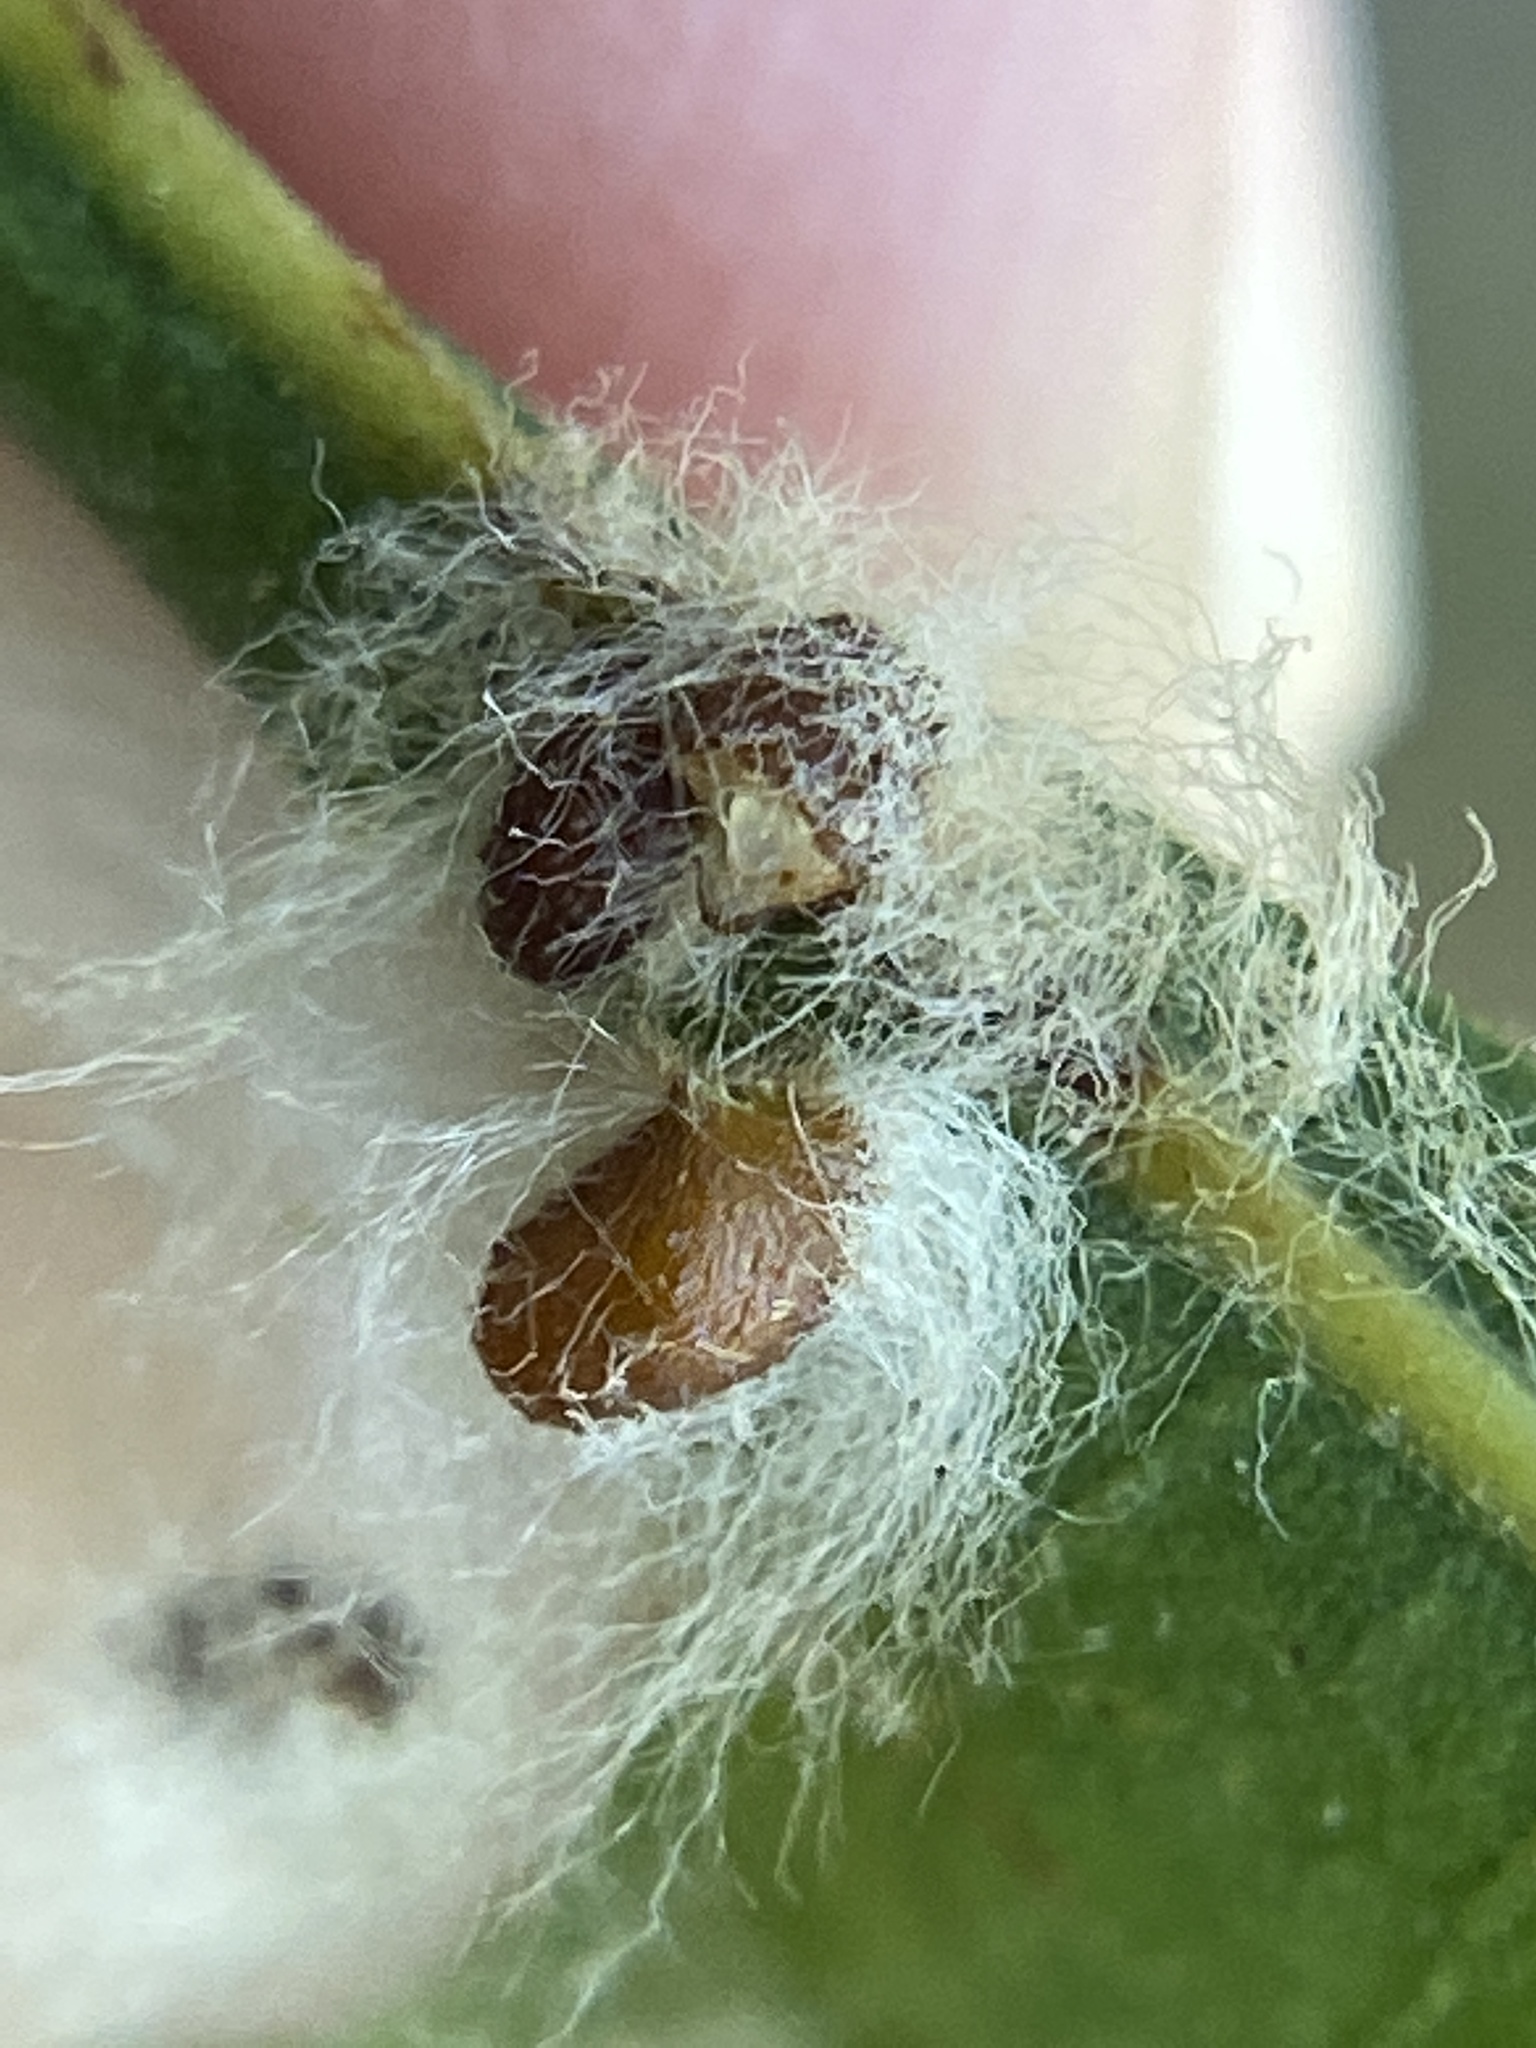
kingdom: Animalia
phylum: Arthropoda
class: Insecta
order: Hymenoptera
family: Cynipidae
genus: Andricus
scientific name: Andricus Druon ignotum
